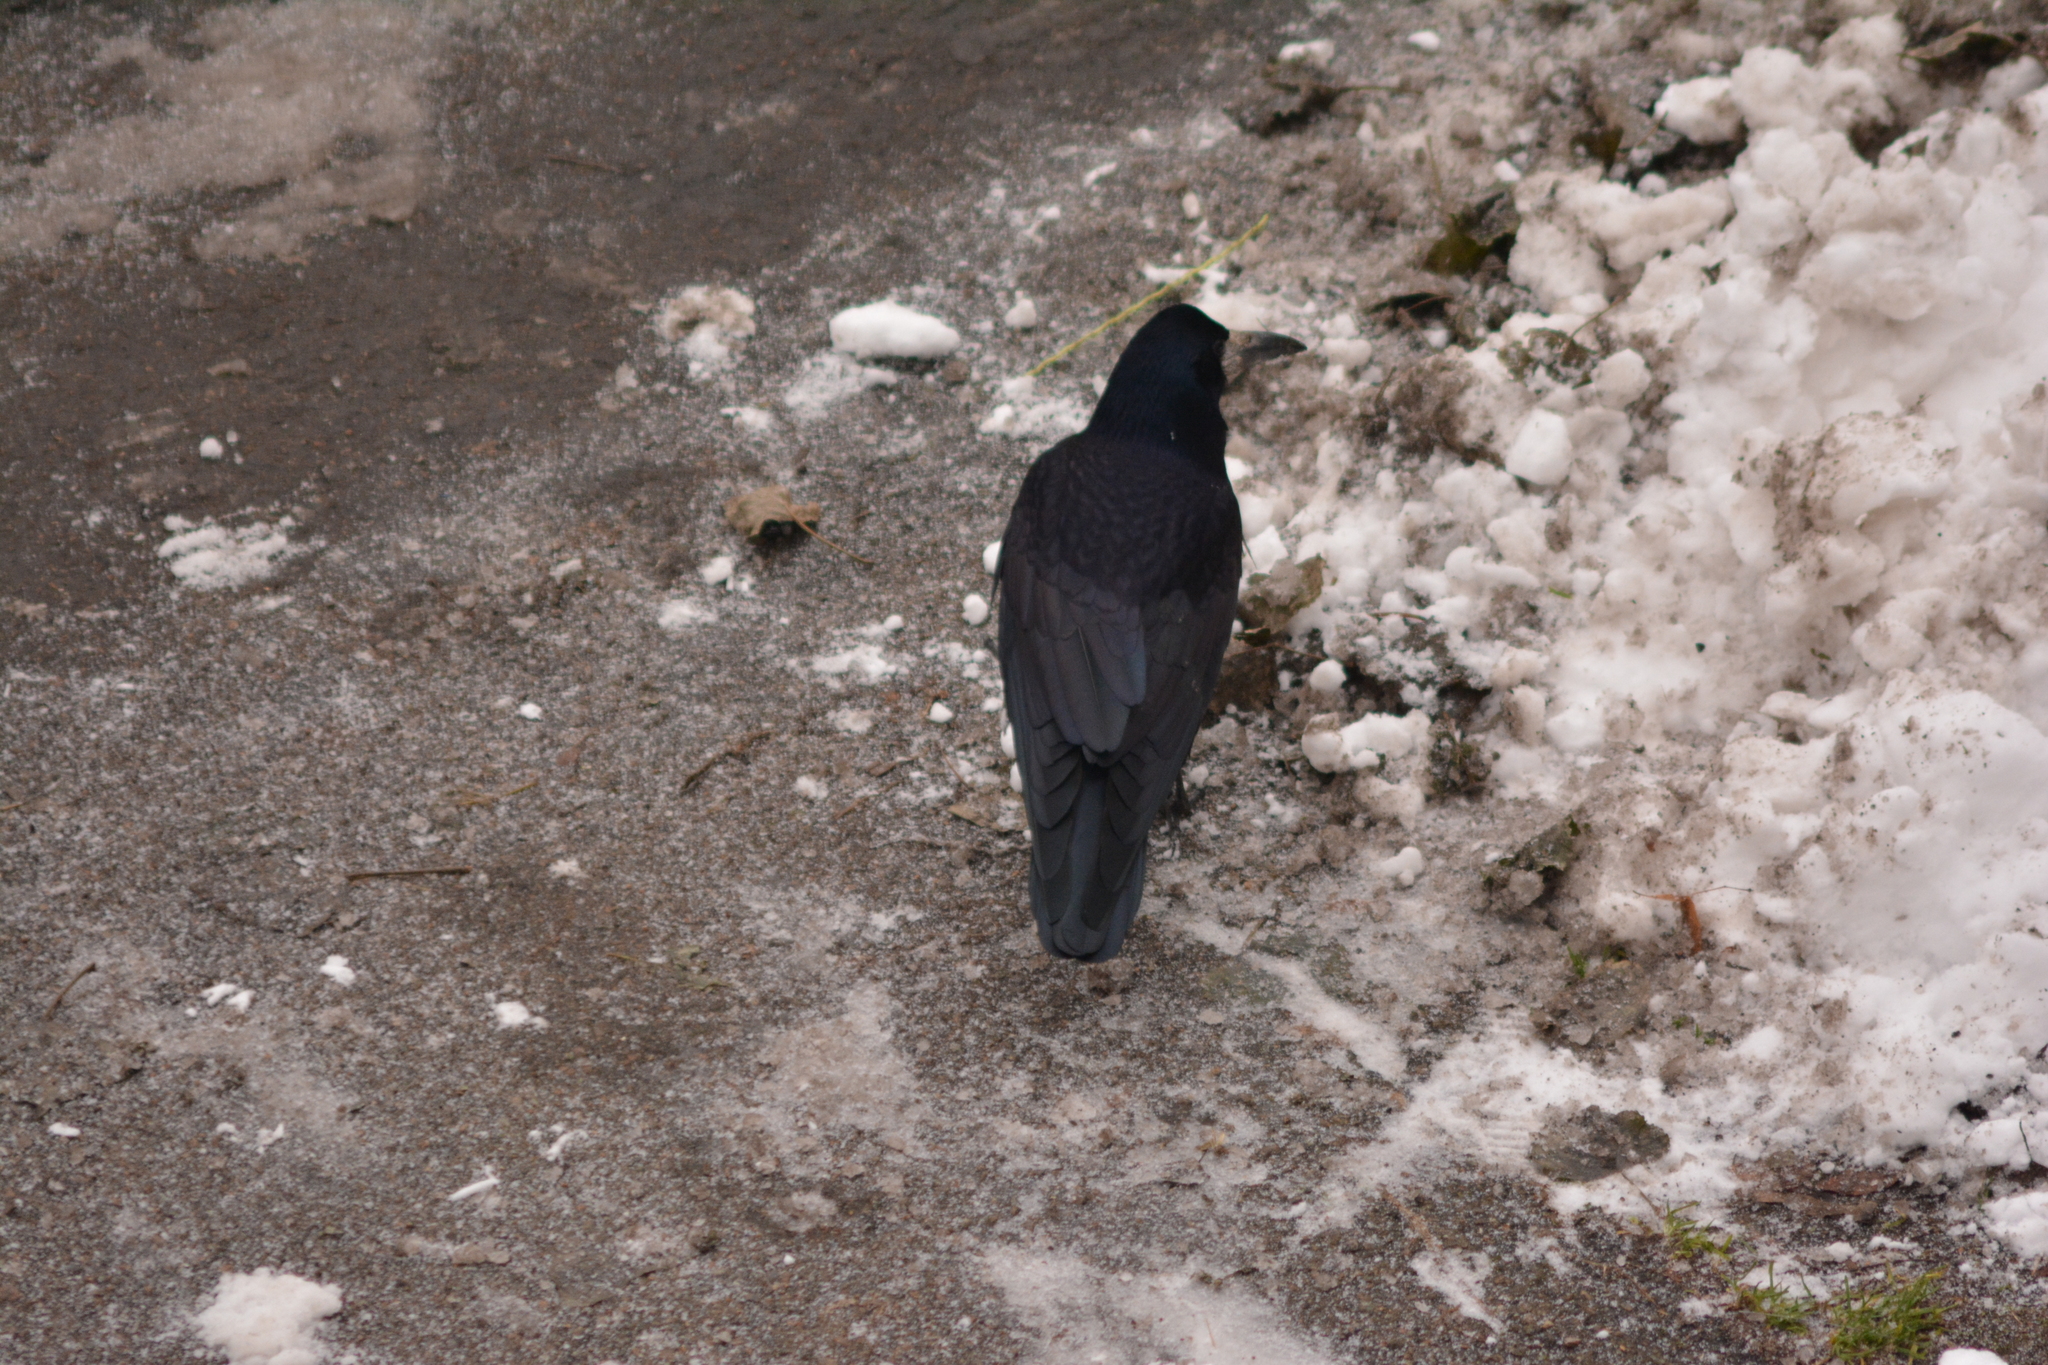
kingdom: Animalia
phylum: Chordata
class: Aves
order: Passeriformes
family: Corvidae
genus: Corvus
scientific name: Corvus frugilegus
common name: Rook
